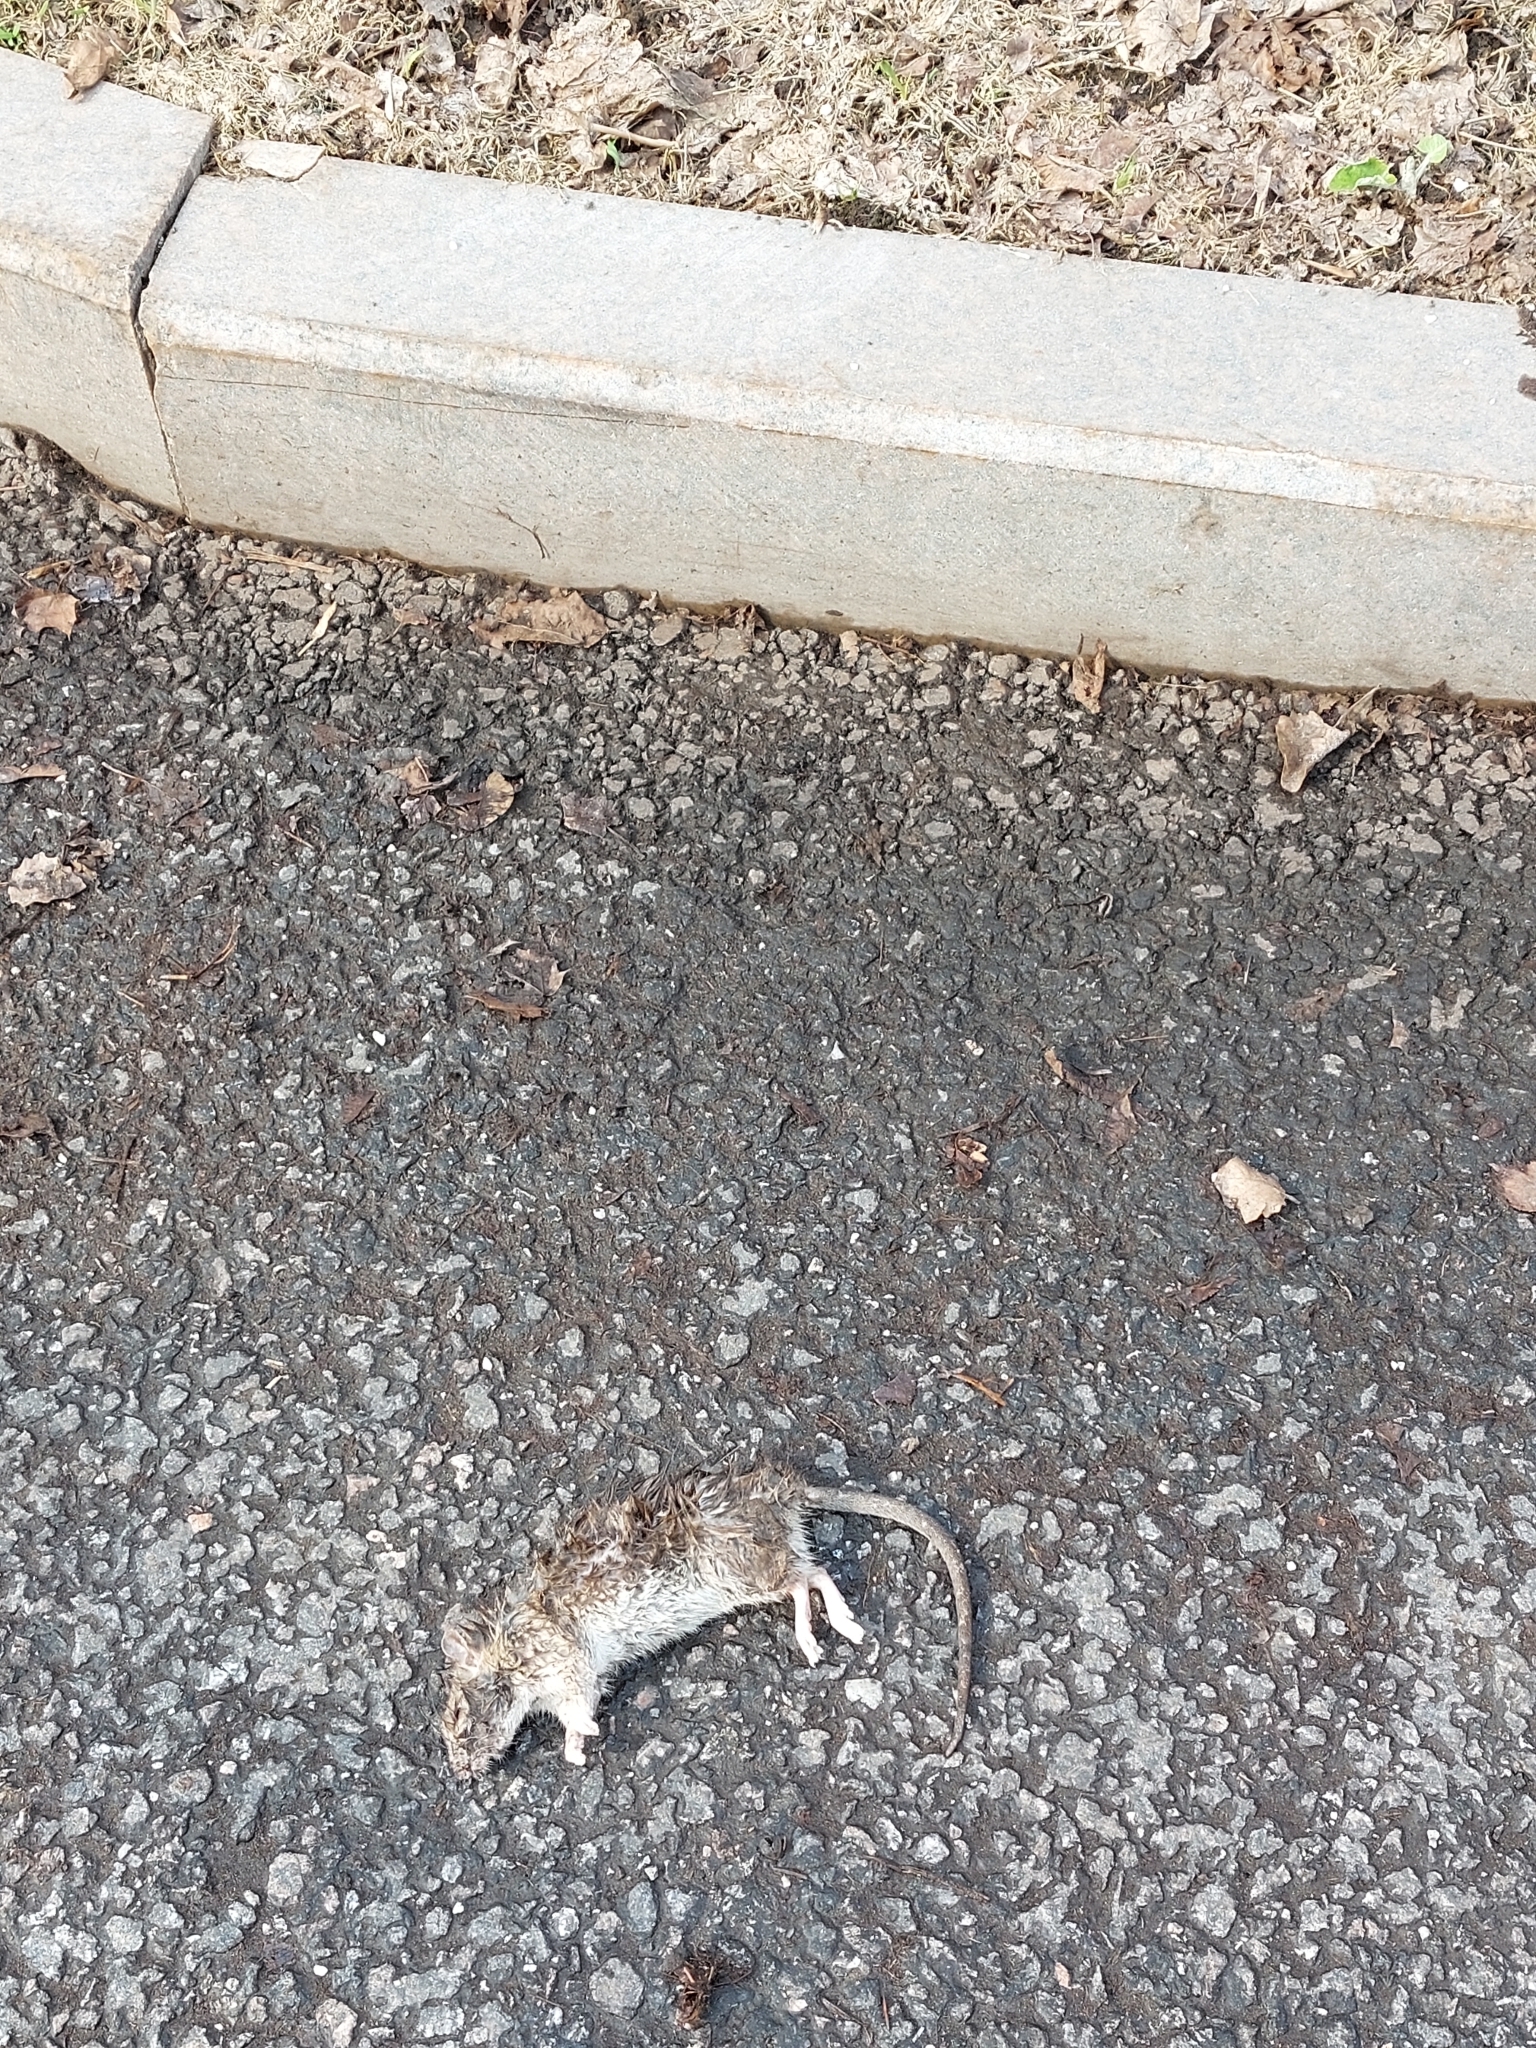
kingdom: Animalia
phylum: Chordata
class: Mammalia
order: Rodentia
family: Muridae
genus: Rattus
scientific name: Rattus norvegicus
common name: Brown rat
